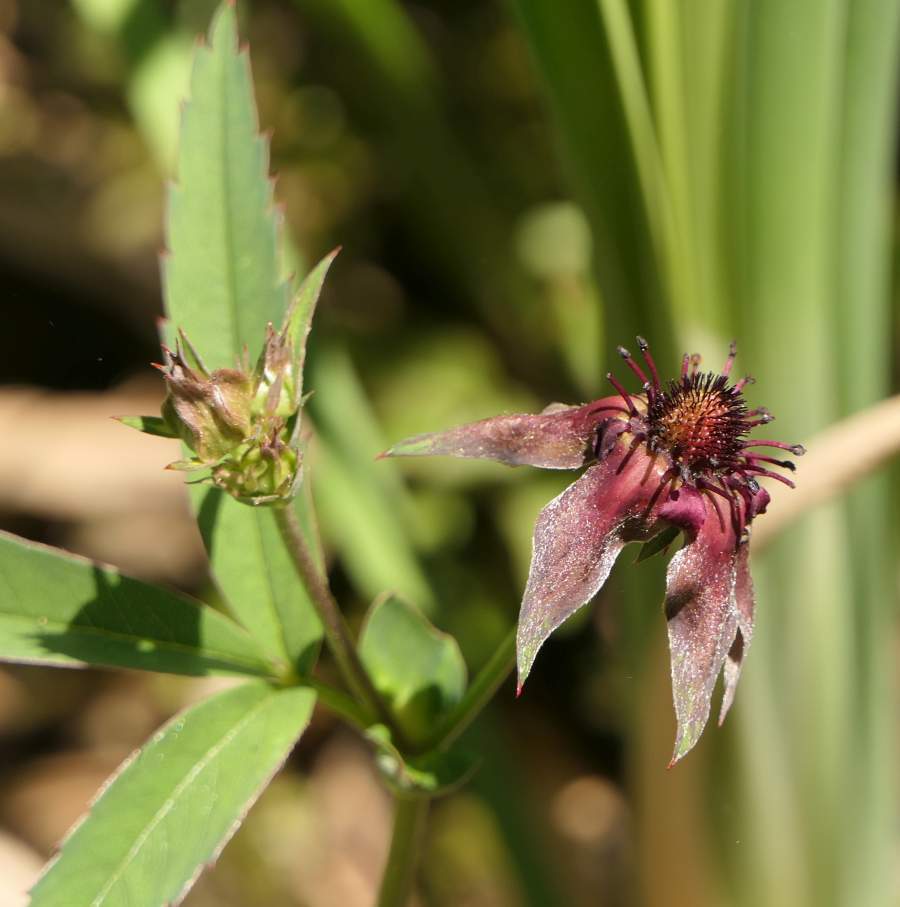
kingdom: Plantae
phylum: Tracheophyta
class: Magnoliopsida
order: Rosales
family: Rosaceae
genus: Comarum
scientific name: Comarum palustre
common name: Marsh cinquefoil
